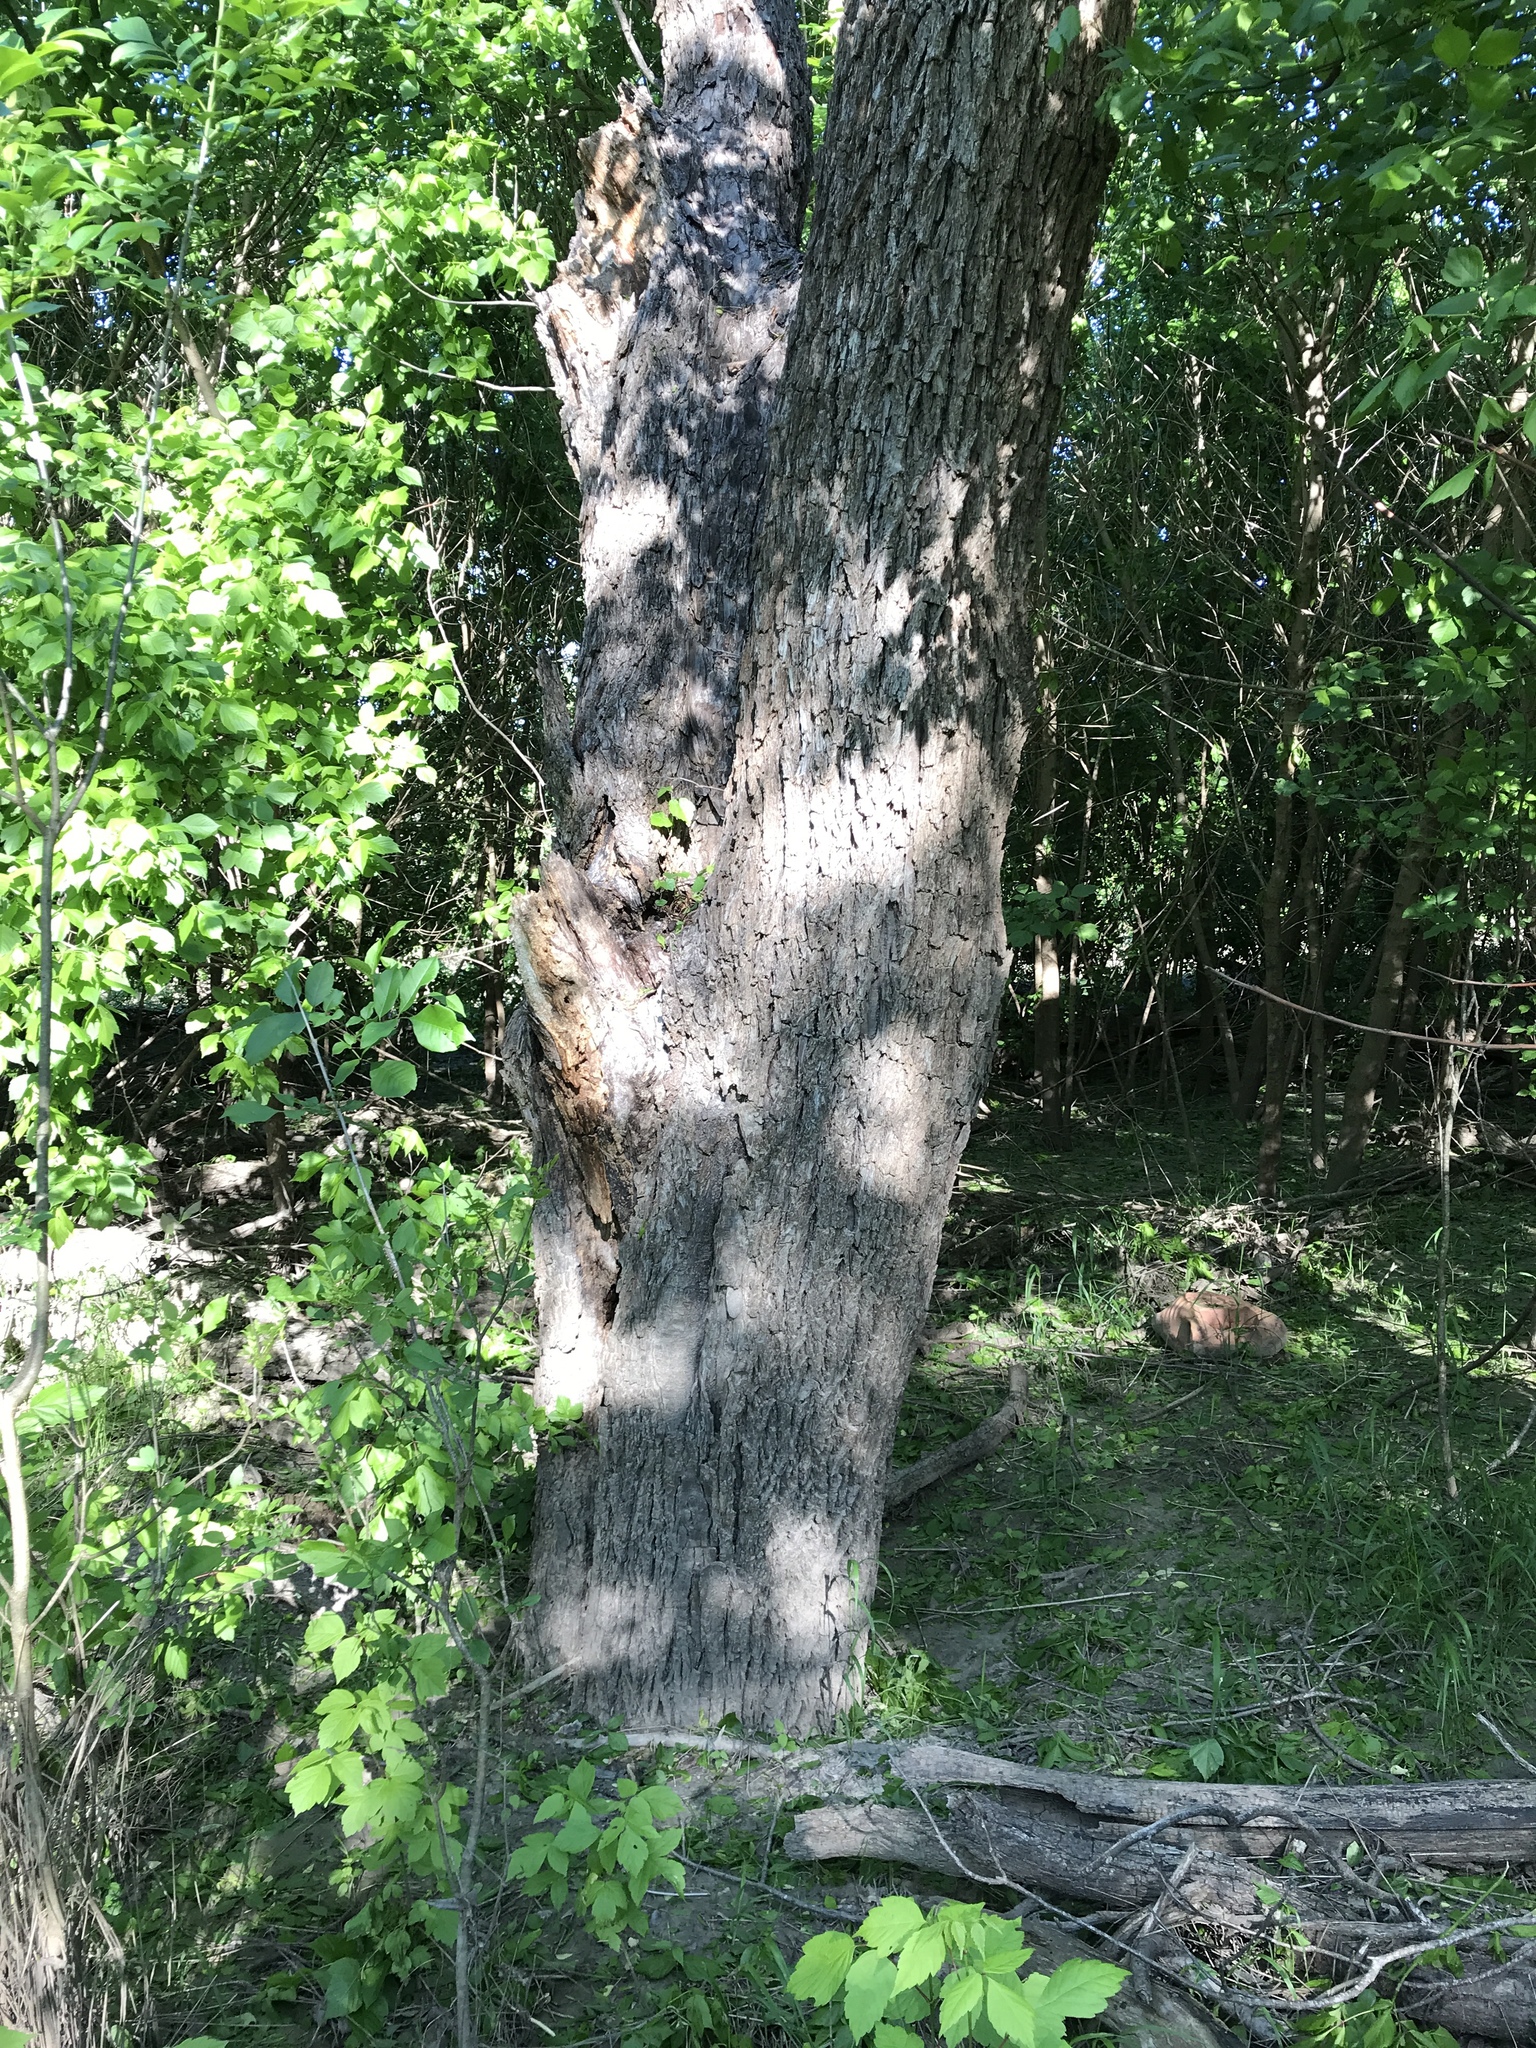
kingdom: Plantae
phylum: Tracheophyta
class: Magnoliopsida
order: Fagales
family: Juglandaceae
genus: Carya
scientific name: Carya illinoinensis
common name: Pecan
